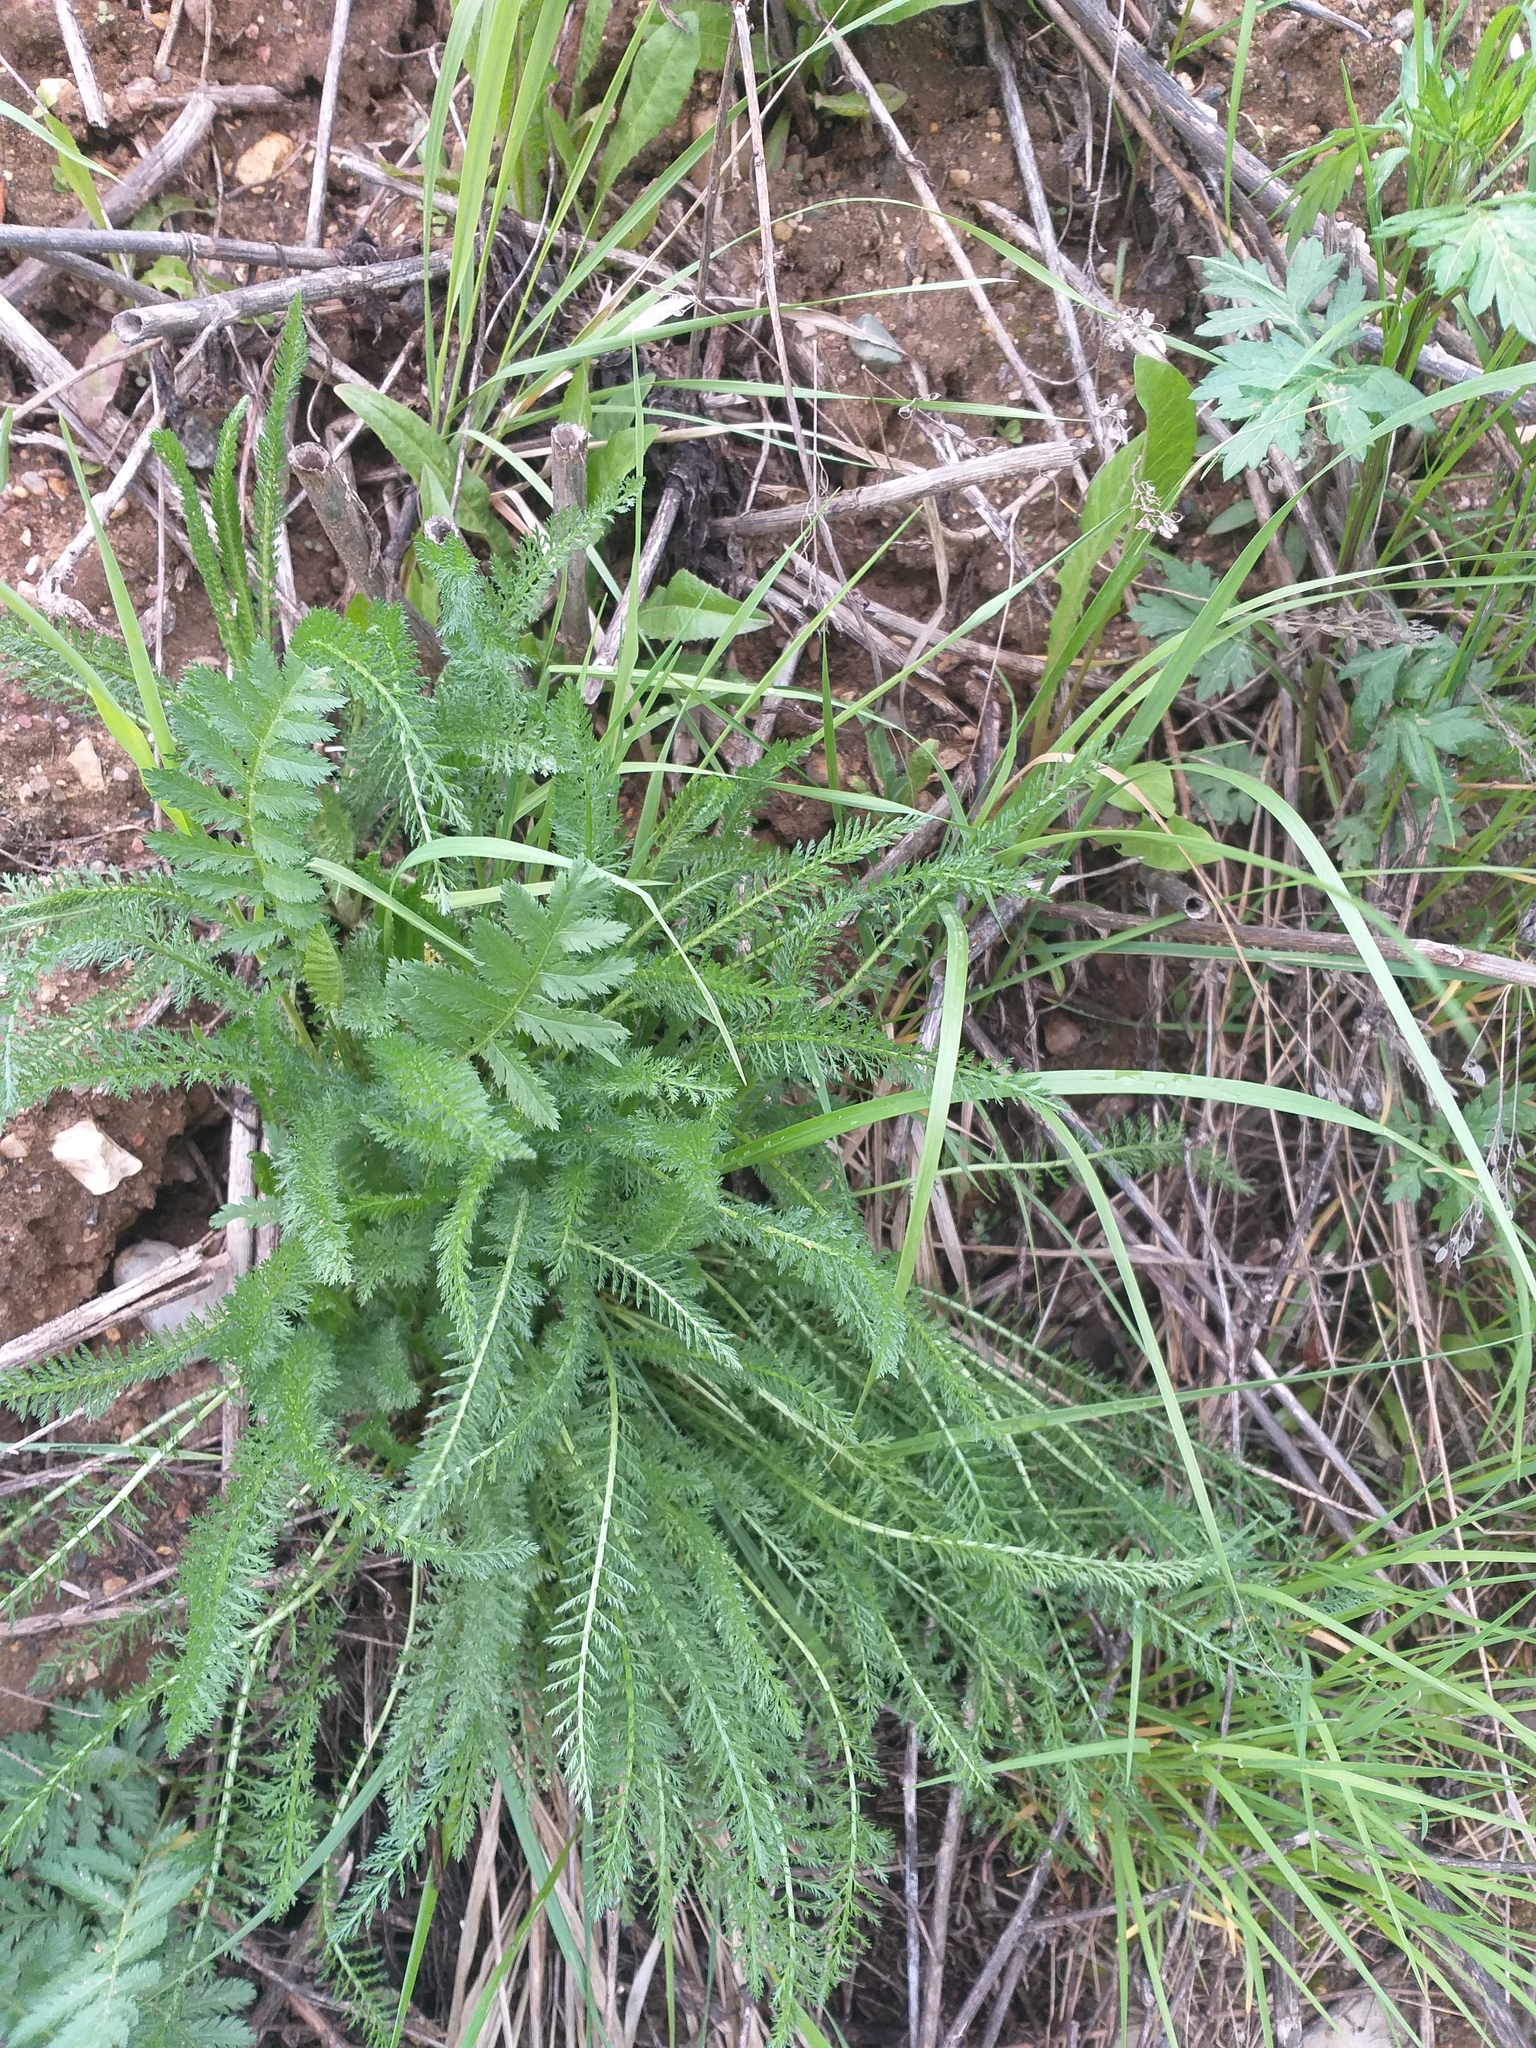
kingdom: Plantae
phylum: Tracheophyta
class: Magnoliopsida
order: Asterales
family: Asteraceae
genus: Achillea
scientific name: Achillea millefolium
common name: Yarrow
